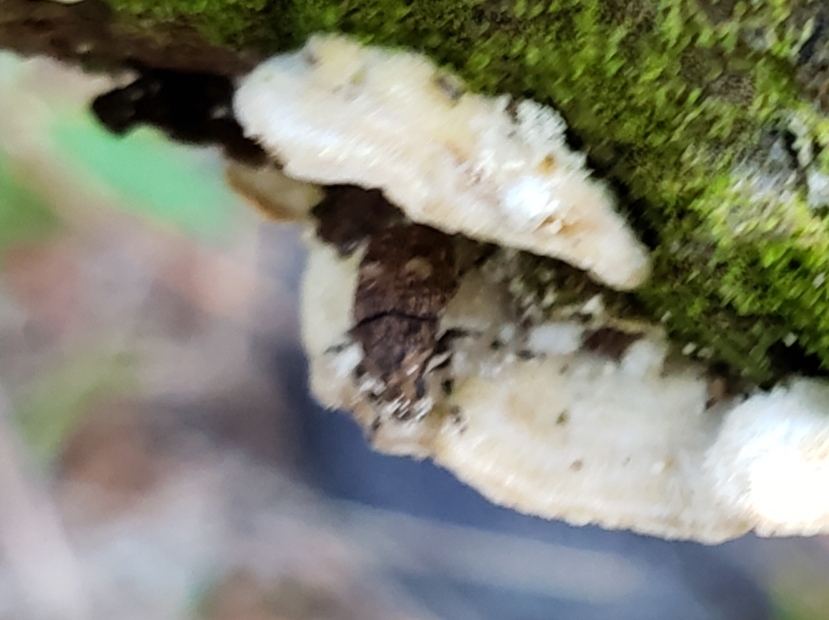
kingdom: Animalia
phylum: Arthropoda
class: Insecta
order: Coleoptera
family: Anthribidae
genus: Euparius
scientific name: Euparius marmoreus
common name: Marbled fungus weevil
